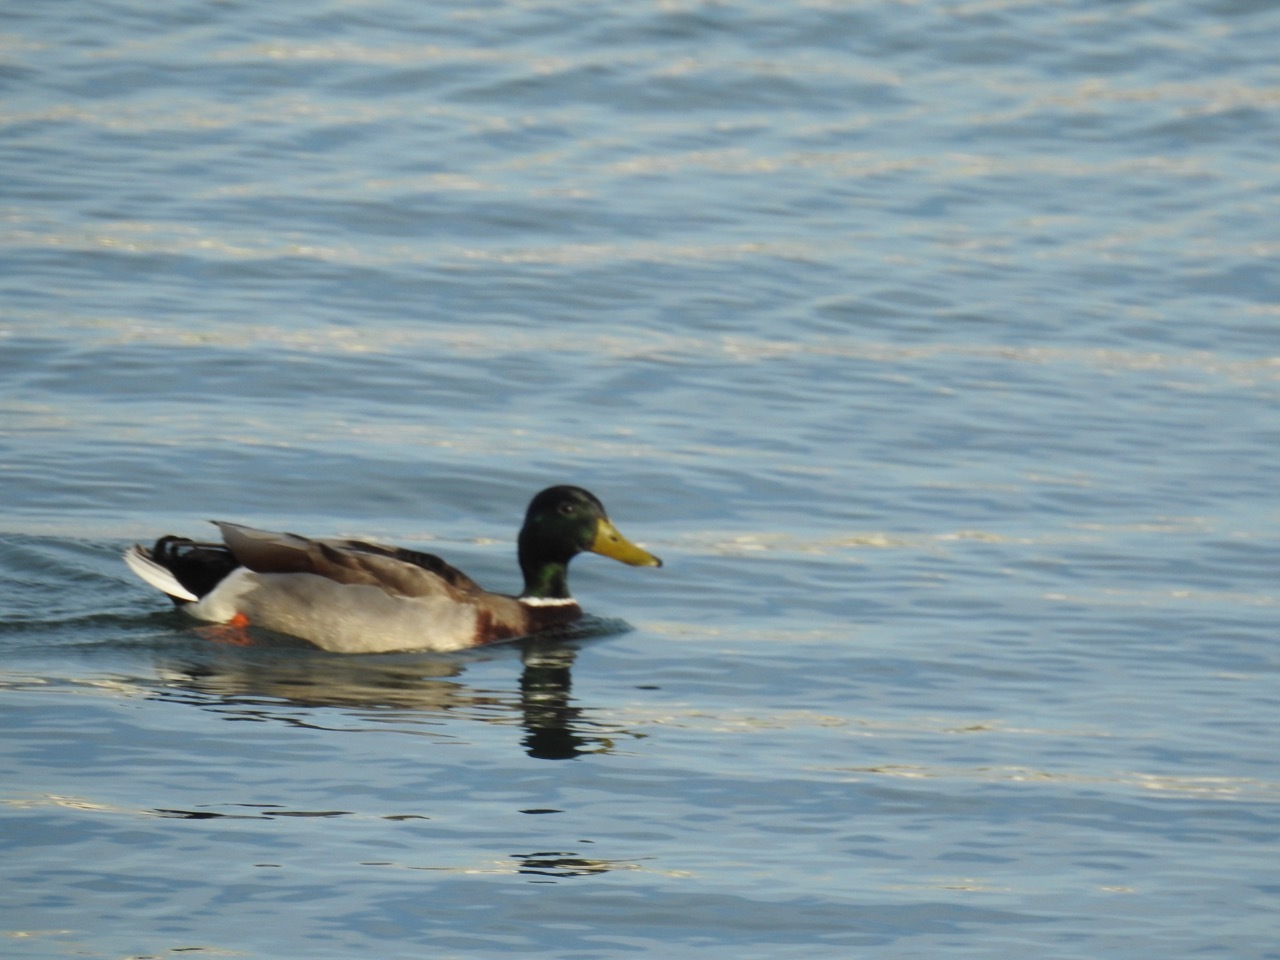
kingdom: Animalia
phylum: Chordata
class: Aves
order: Anseriformes
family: Anatidae
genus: Anas
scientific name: Anas platyrhynchos
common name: Mallard
